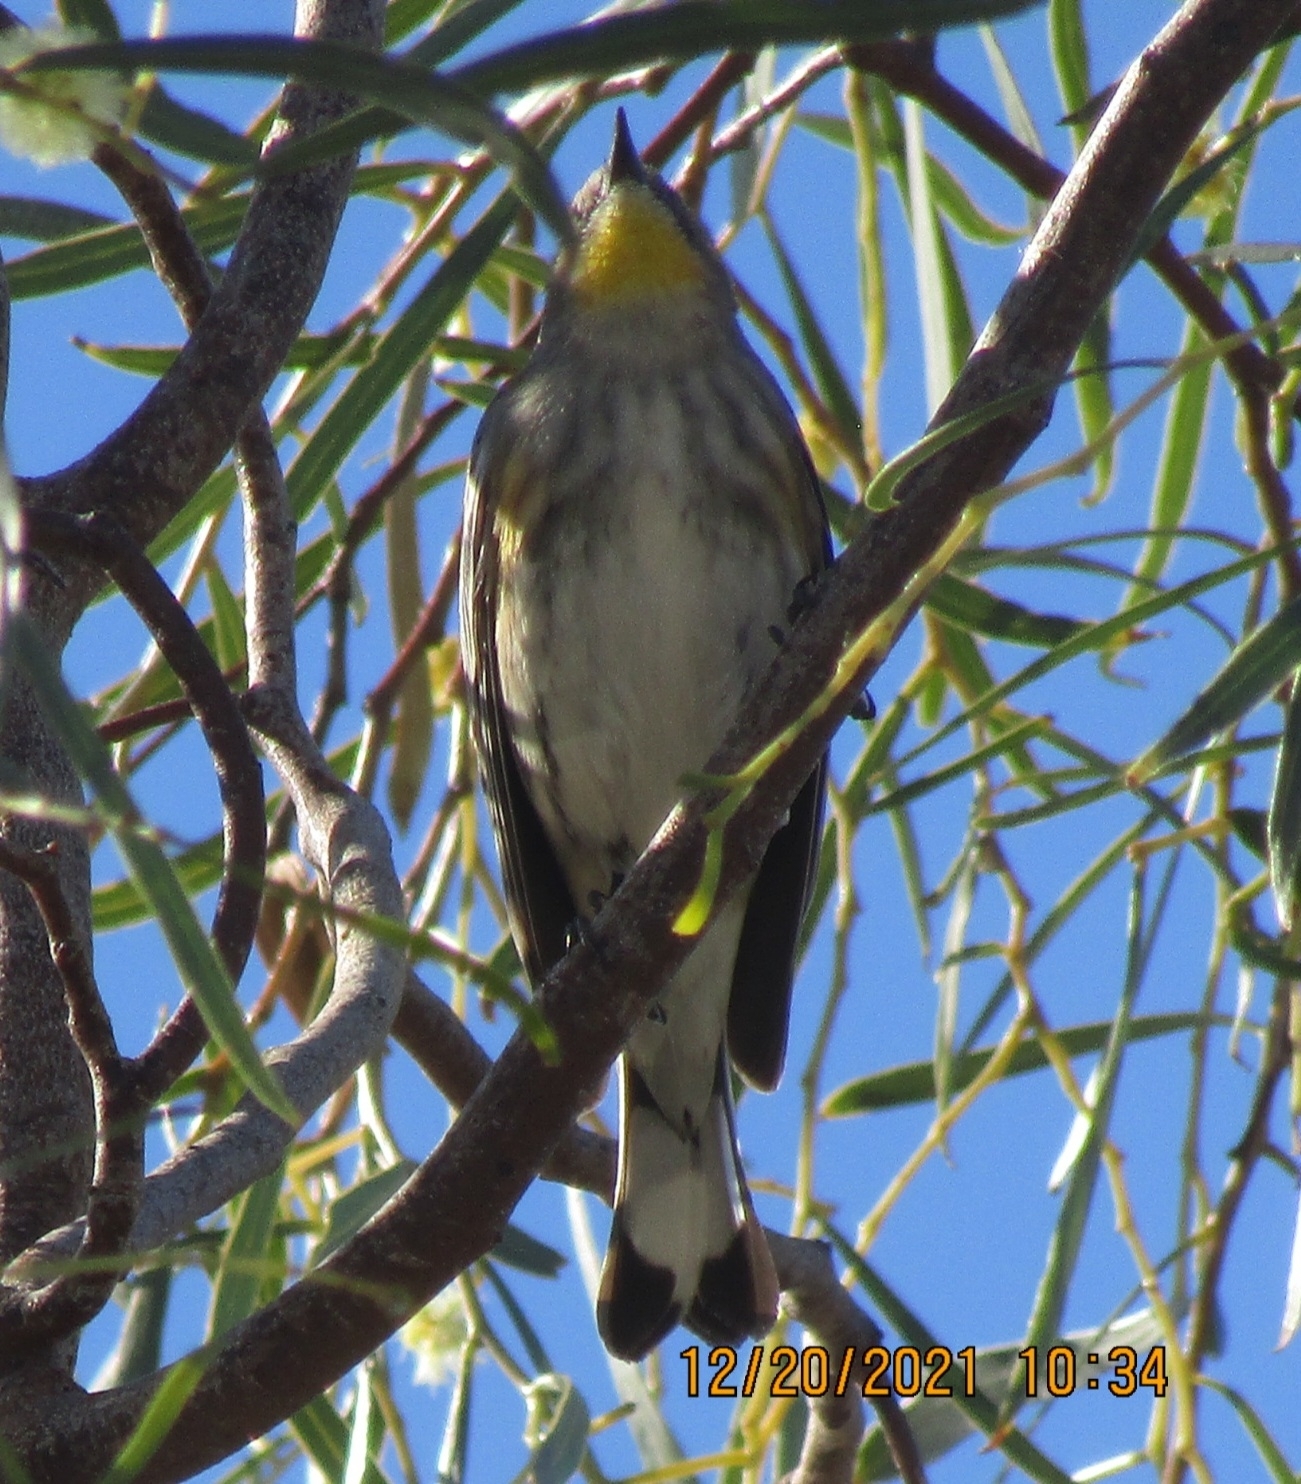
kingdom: Animalia
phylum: Chordata
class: Aves
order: Passeriformes
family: Parulidae
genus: Setophaga
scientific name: Setophaga coronata
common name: Myrtle warbler
